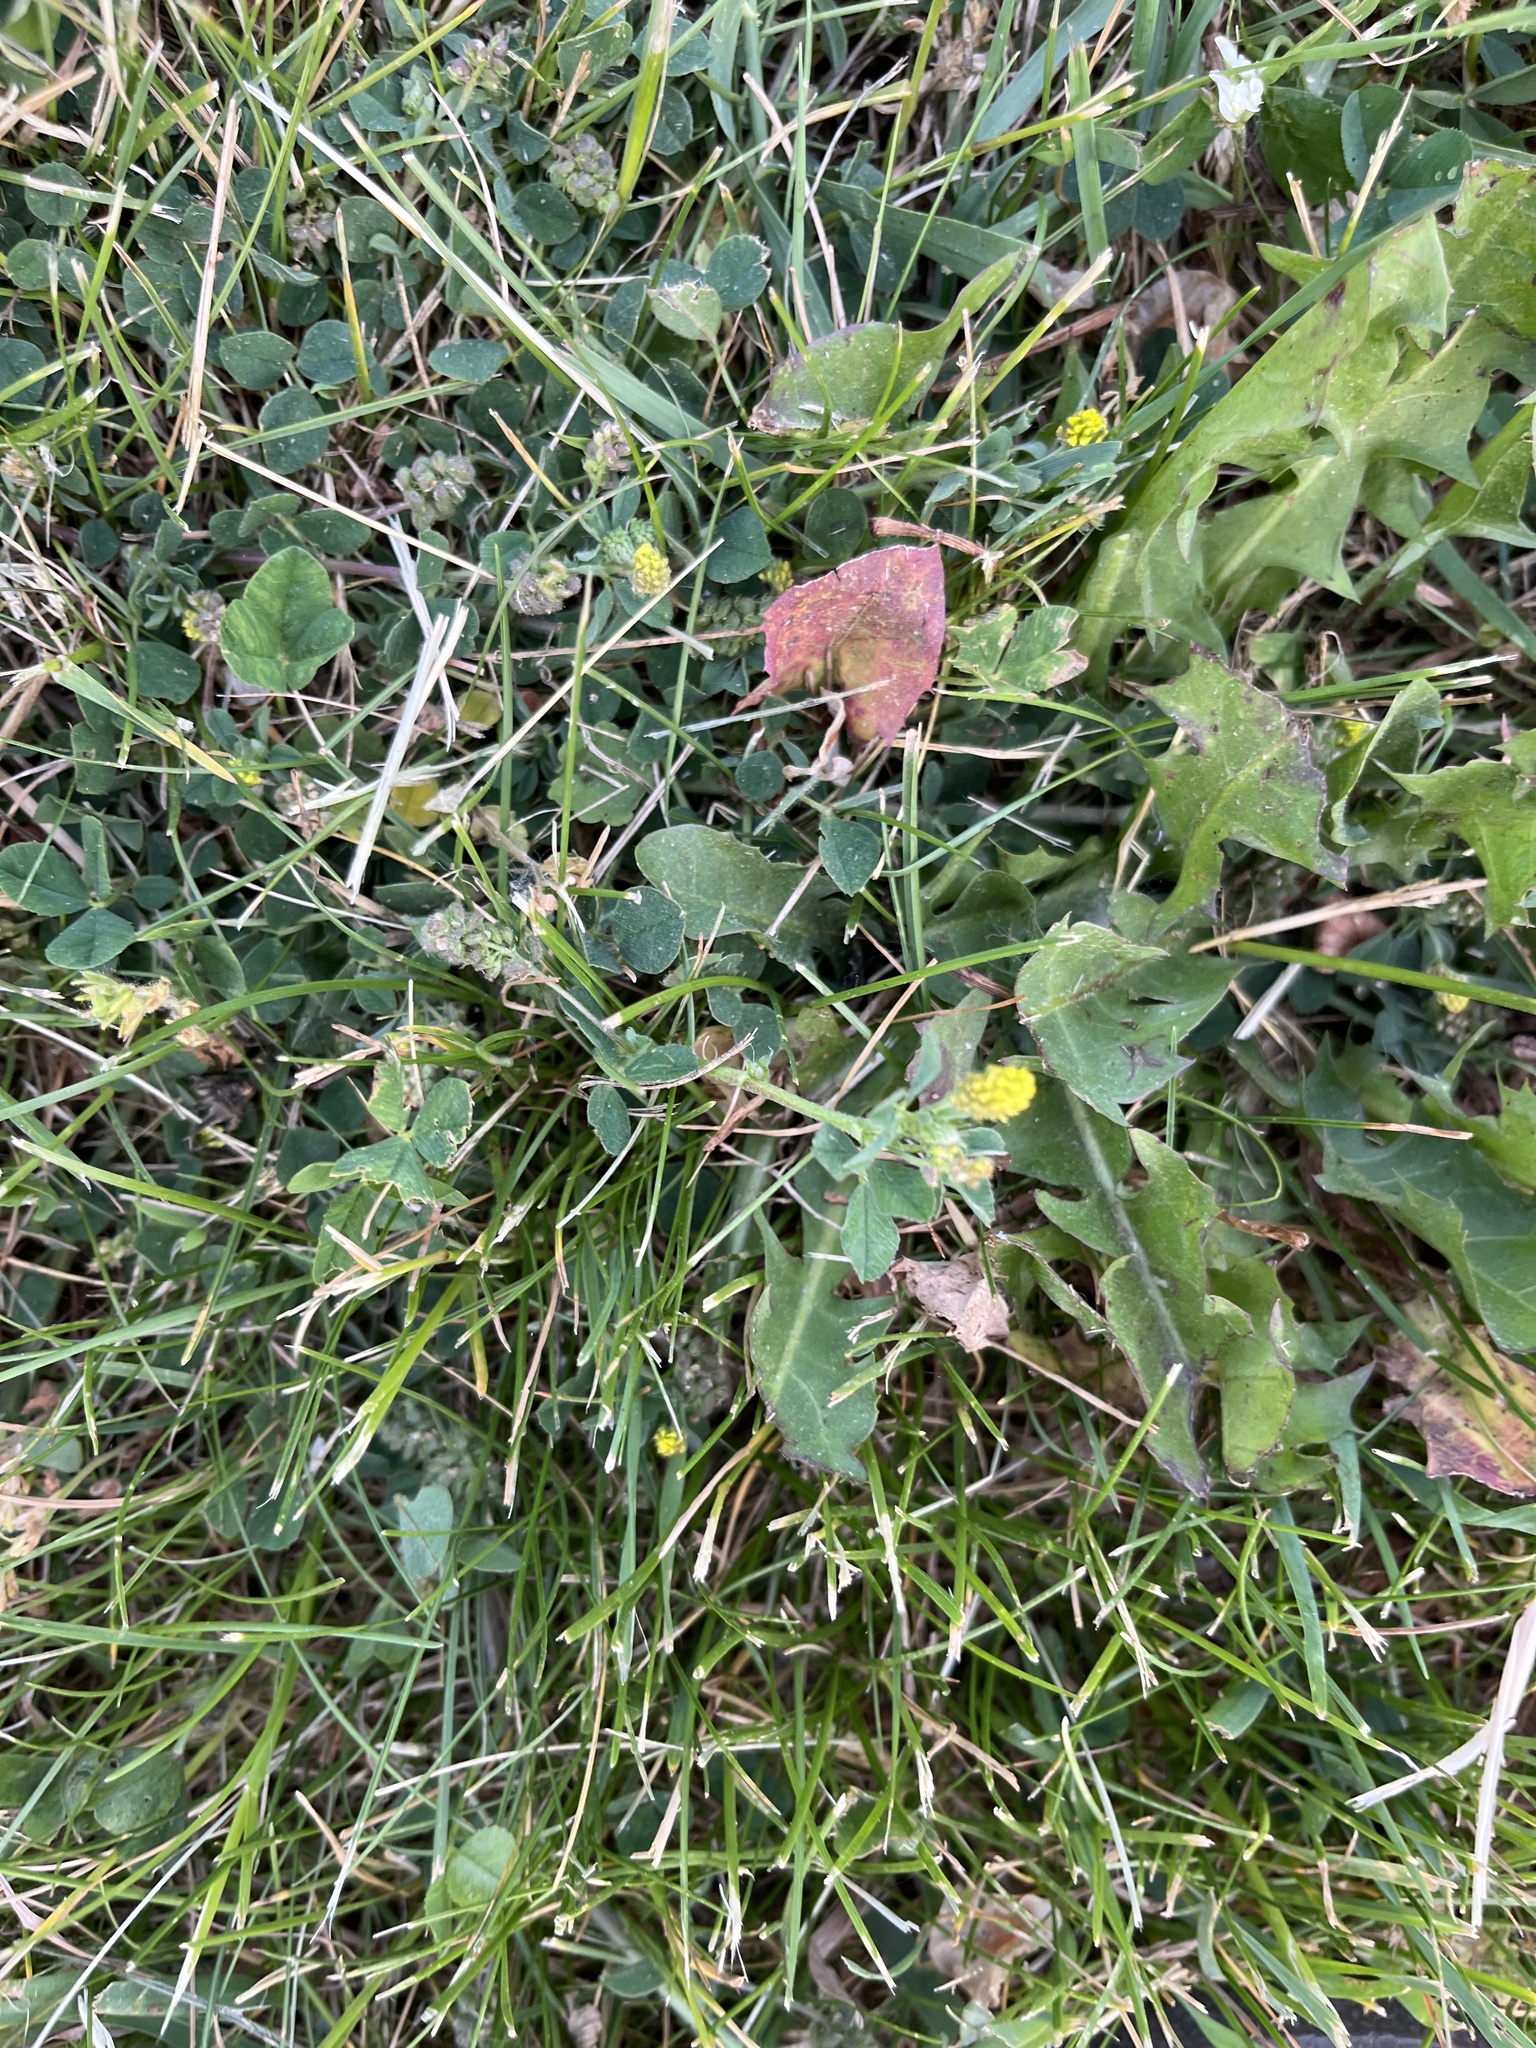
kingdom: Plantae
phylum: Tracheophyta
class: Magnoliopsida
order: Fabales
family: Fabaceae
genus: Medicago
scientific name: Medicago lupulina
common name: Black medick
